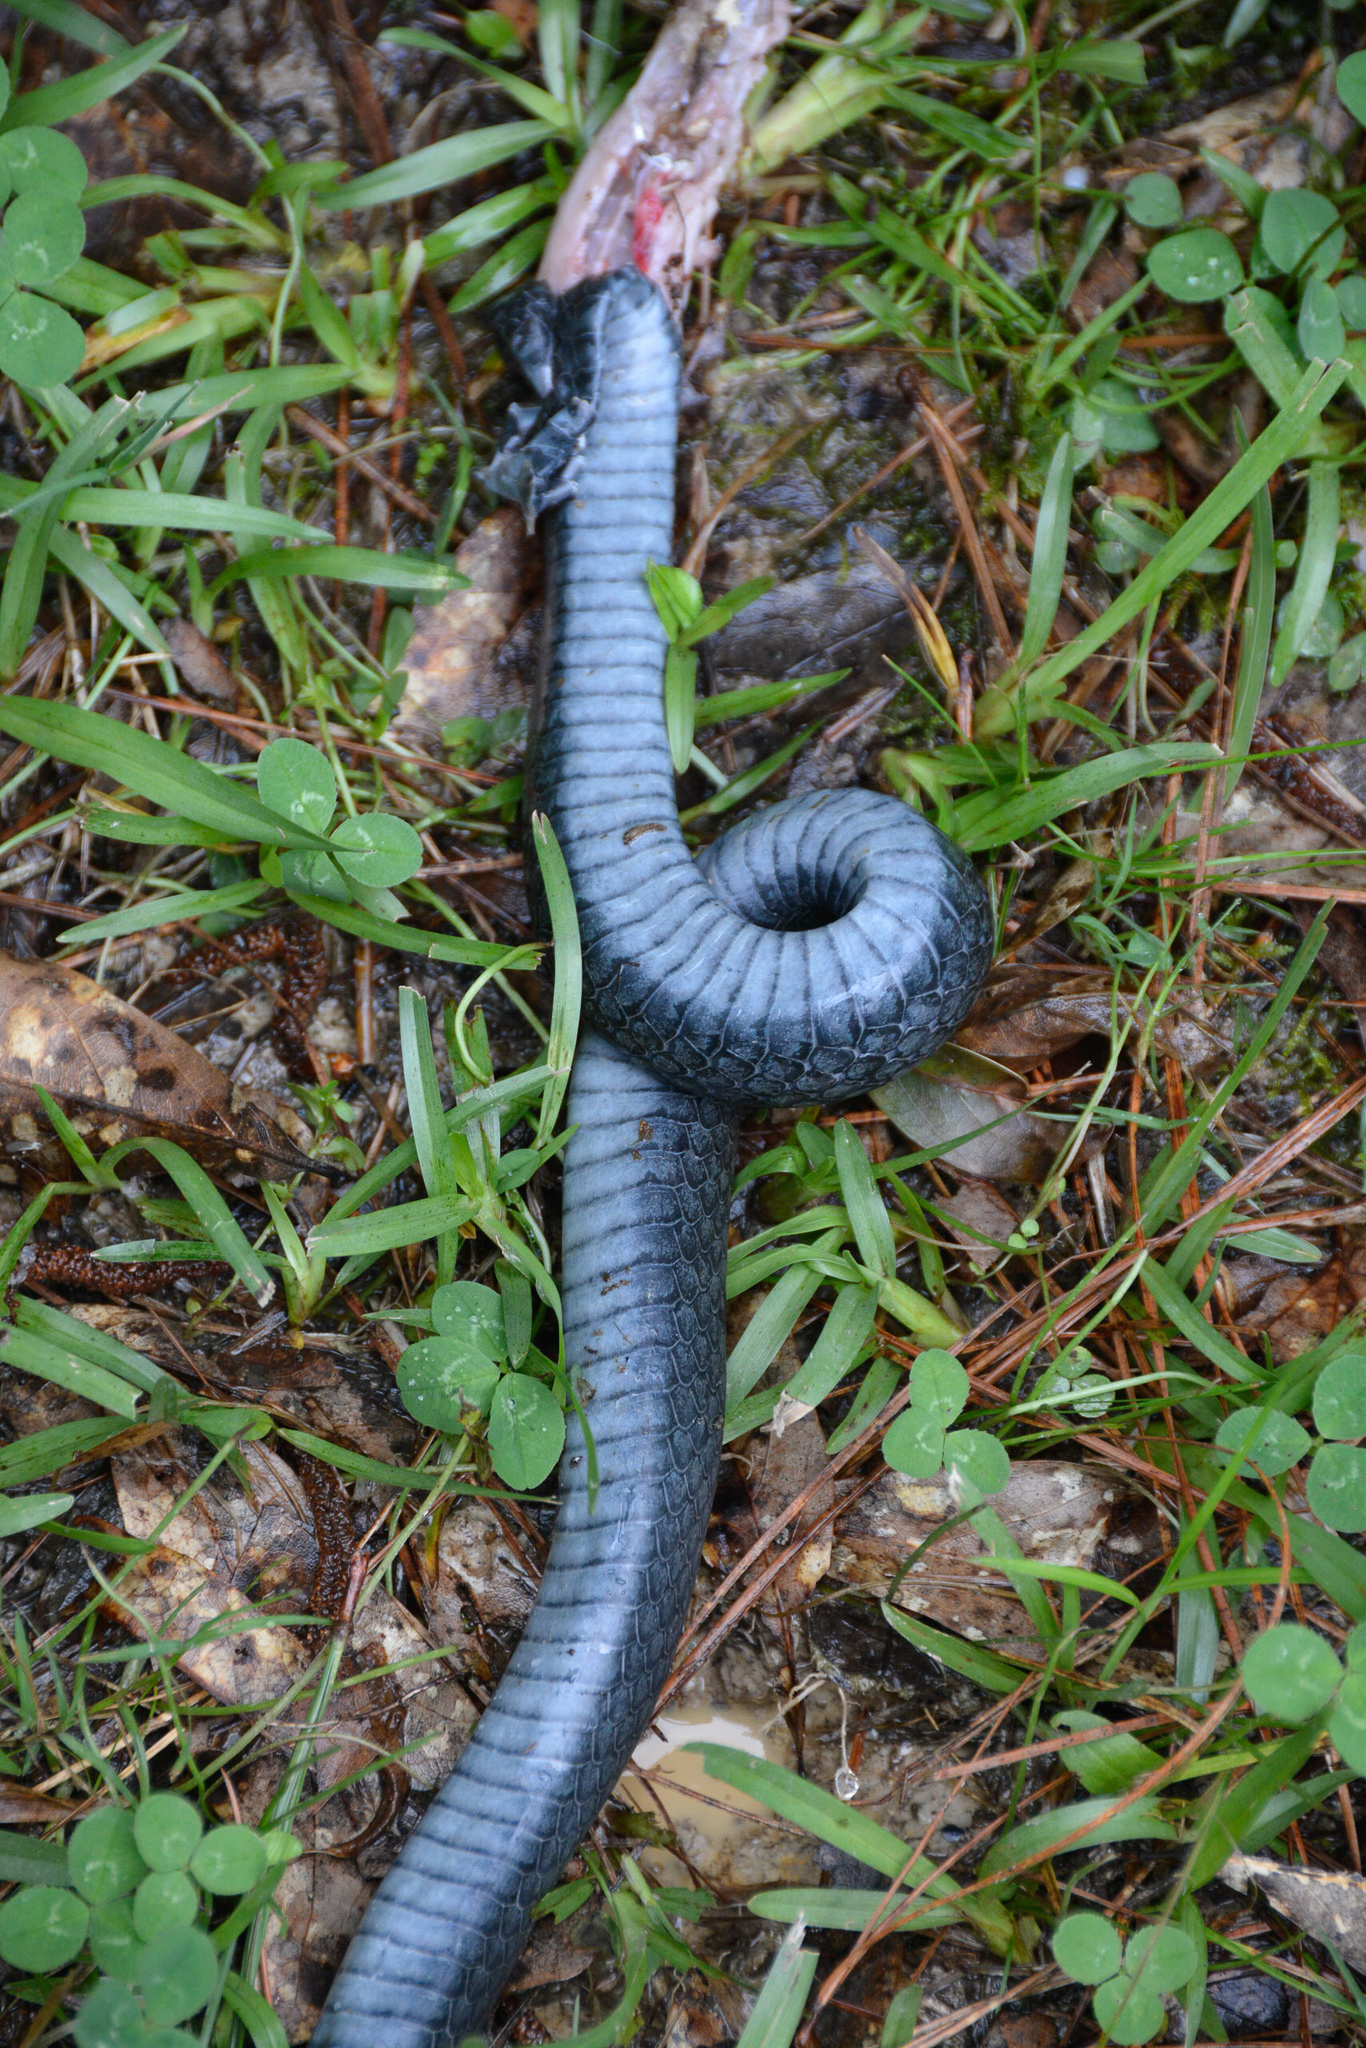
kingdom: Animalia
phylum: Chordata
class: Squamata
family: Colubridae
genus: Coluber
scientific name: Coluber constrictor
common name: Eastern racer
